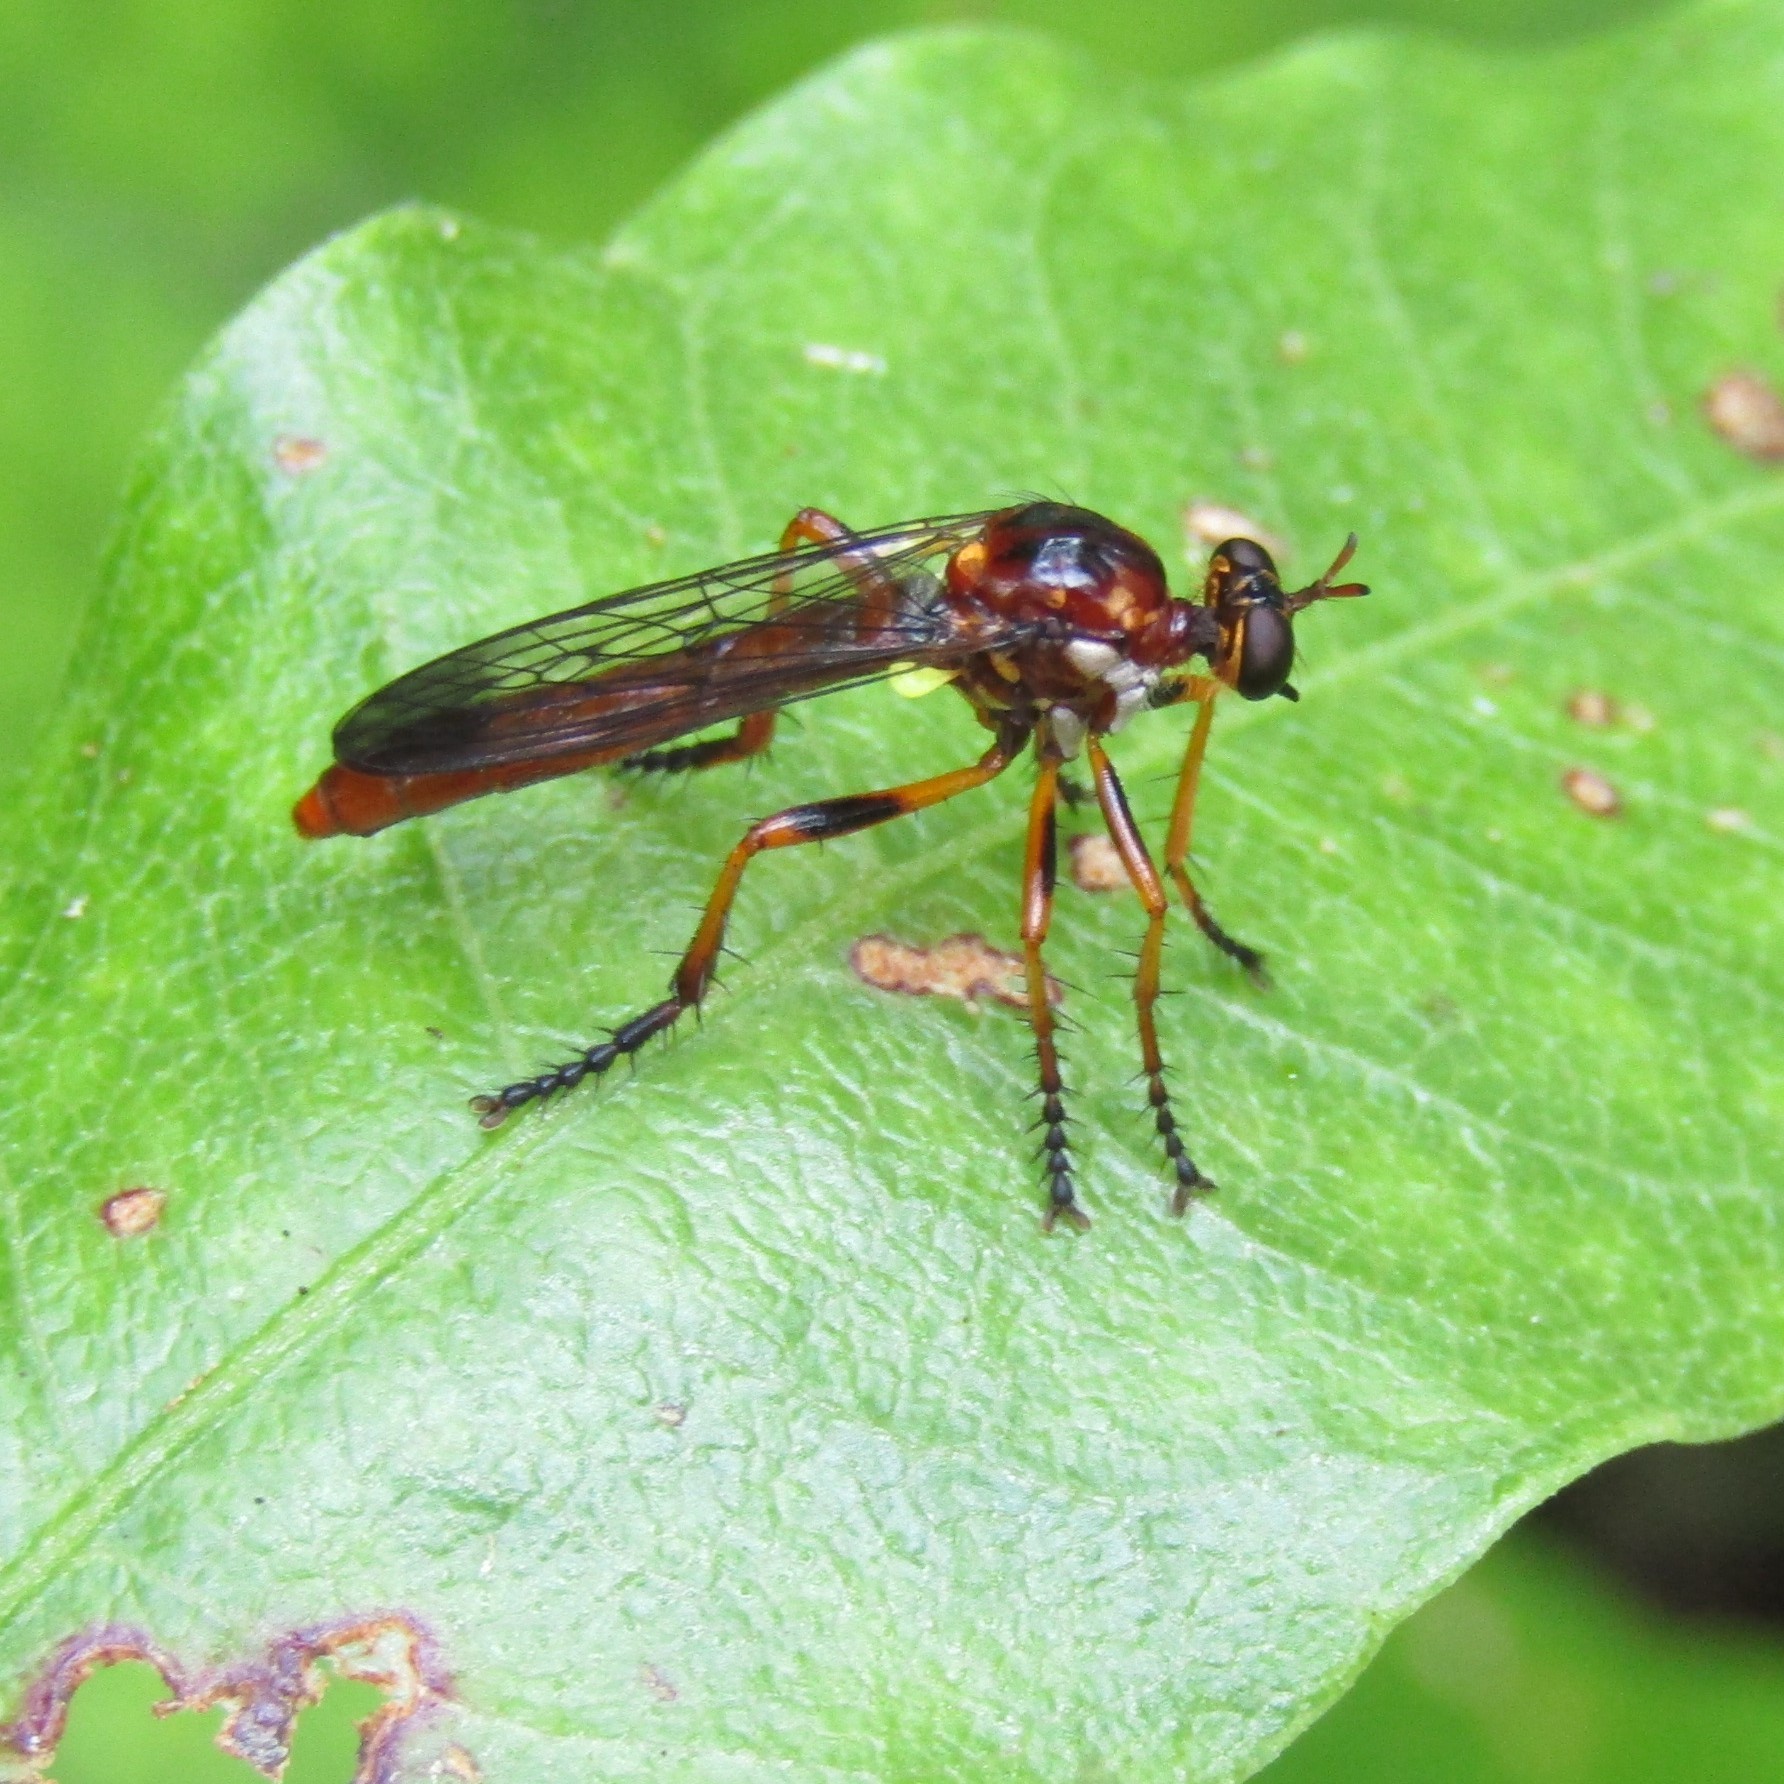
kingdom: Animalia
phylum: Arthropoda
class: Insecta
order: Diptera
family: Asilidae
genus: Saropogon
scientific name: Saropogon antipodus
